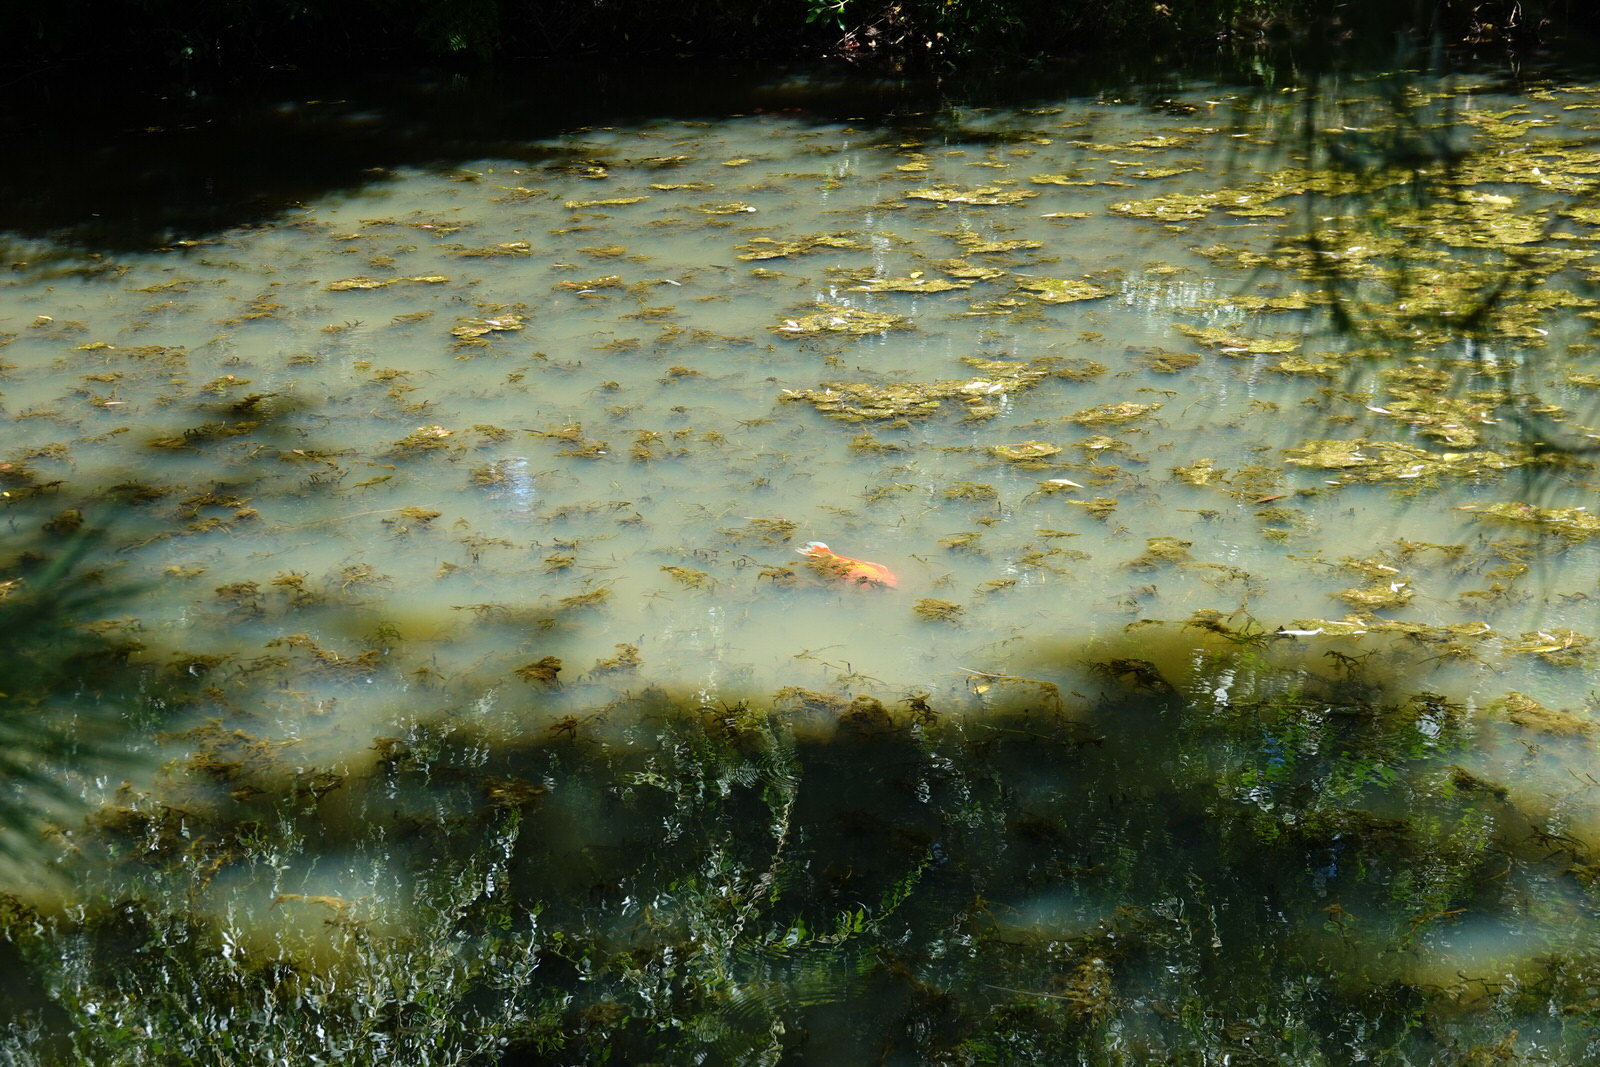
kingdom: Animalia
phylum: Chordata
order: Cypriniformes
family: Cyprinidae
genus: Carassius
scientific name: Carassius auratus
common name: Goldfish
